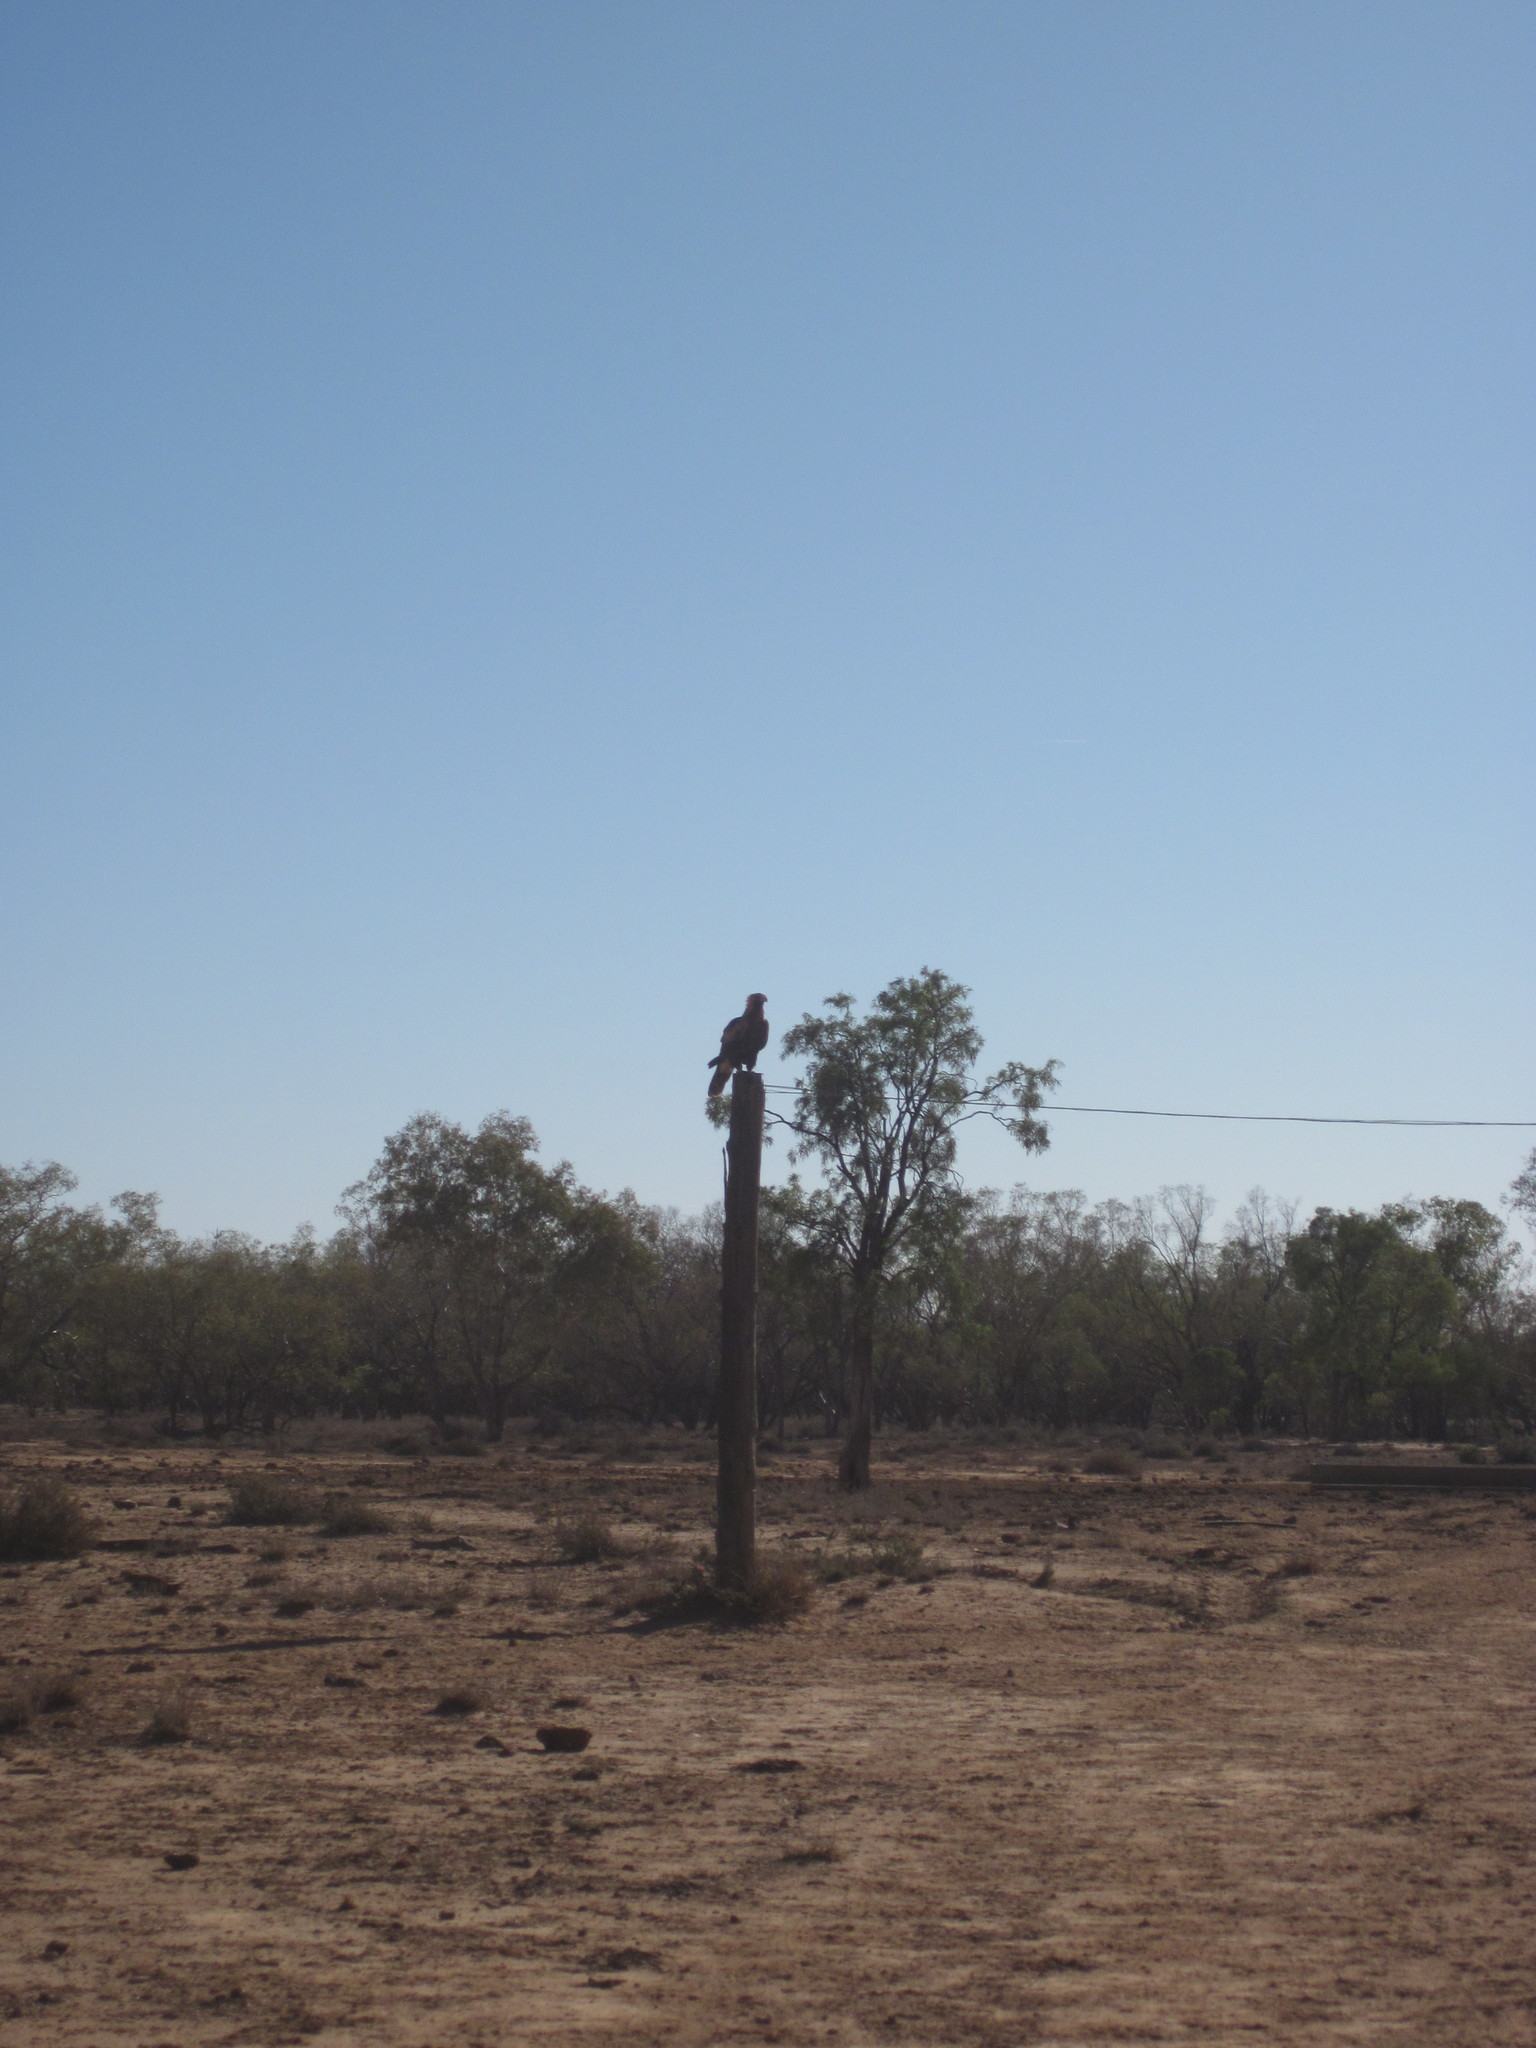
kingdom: Animalia
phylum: Chordata
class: Aves
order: Accipitriformes
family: Accipitridae
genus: Aquila
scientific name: Aquila audax
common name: Wedge-tailed eagle
